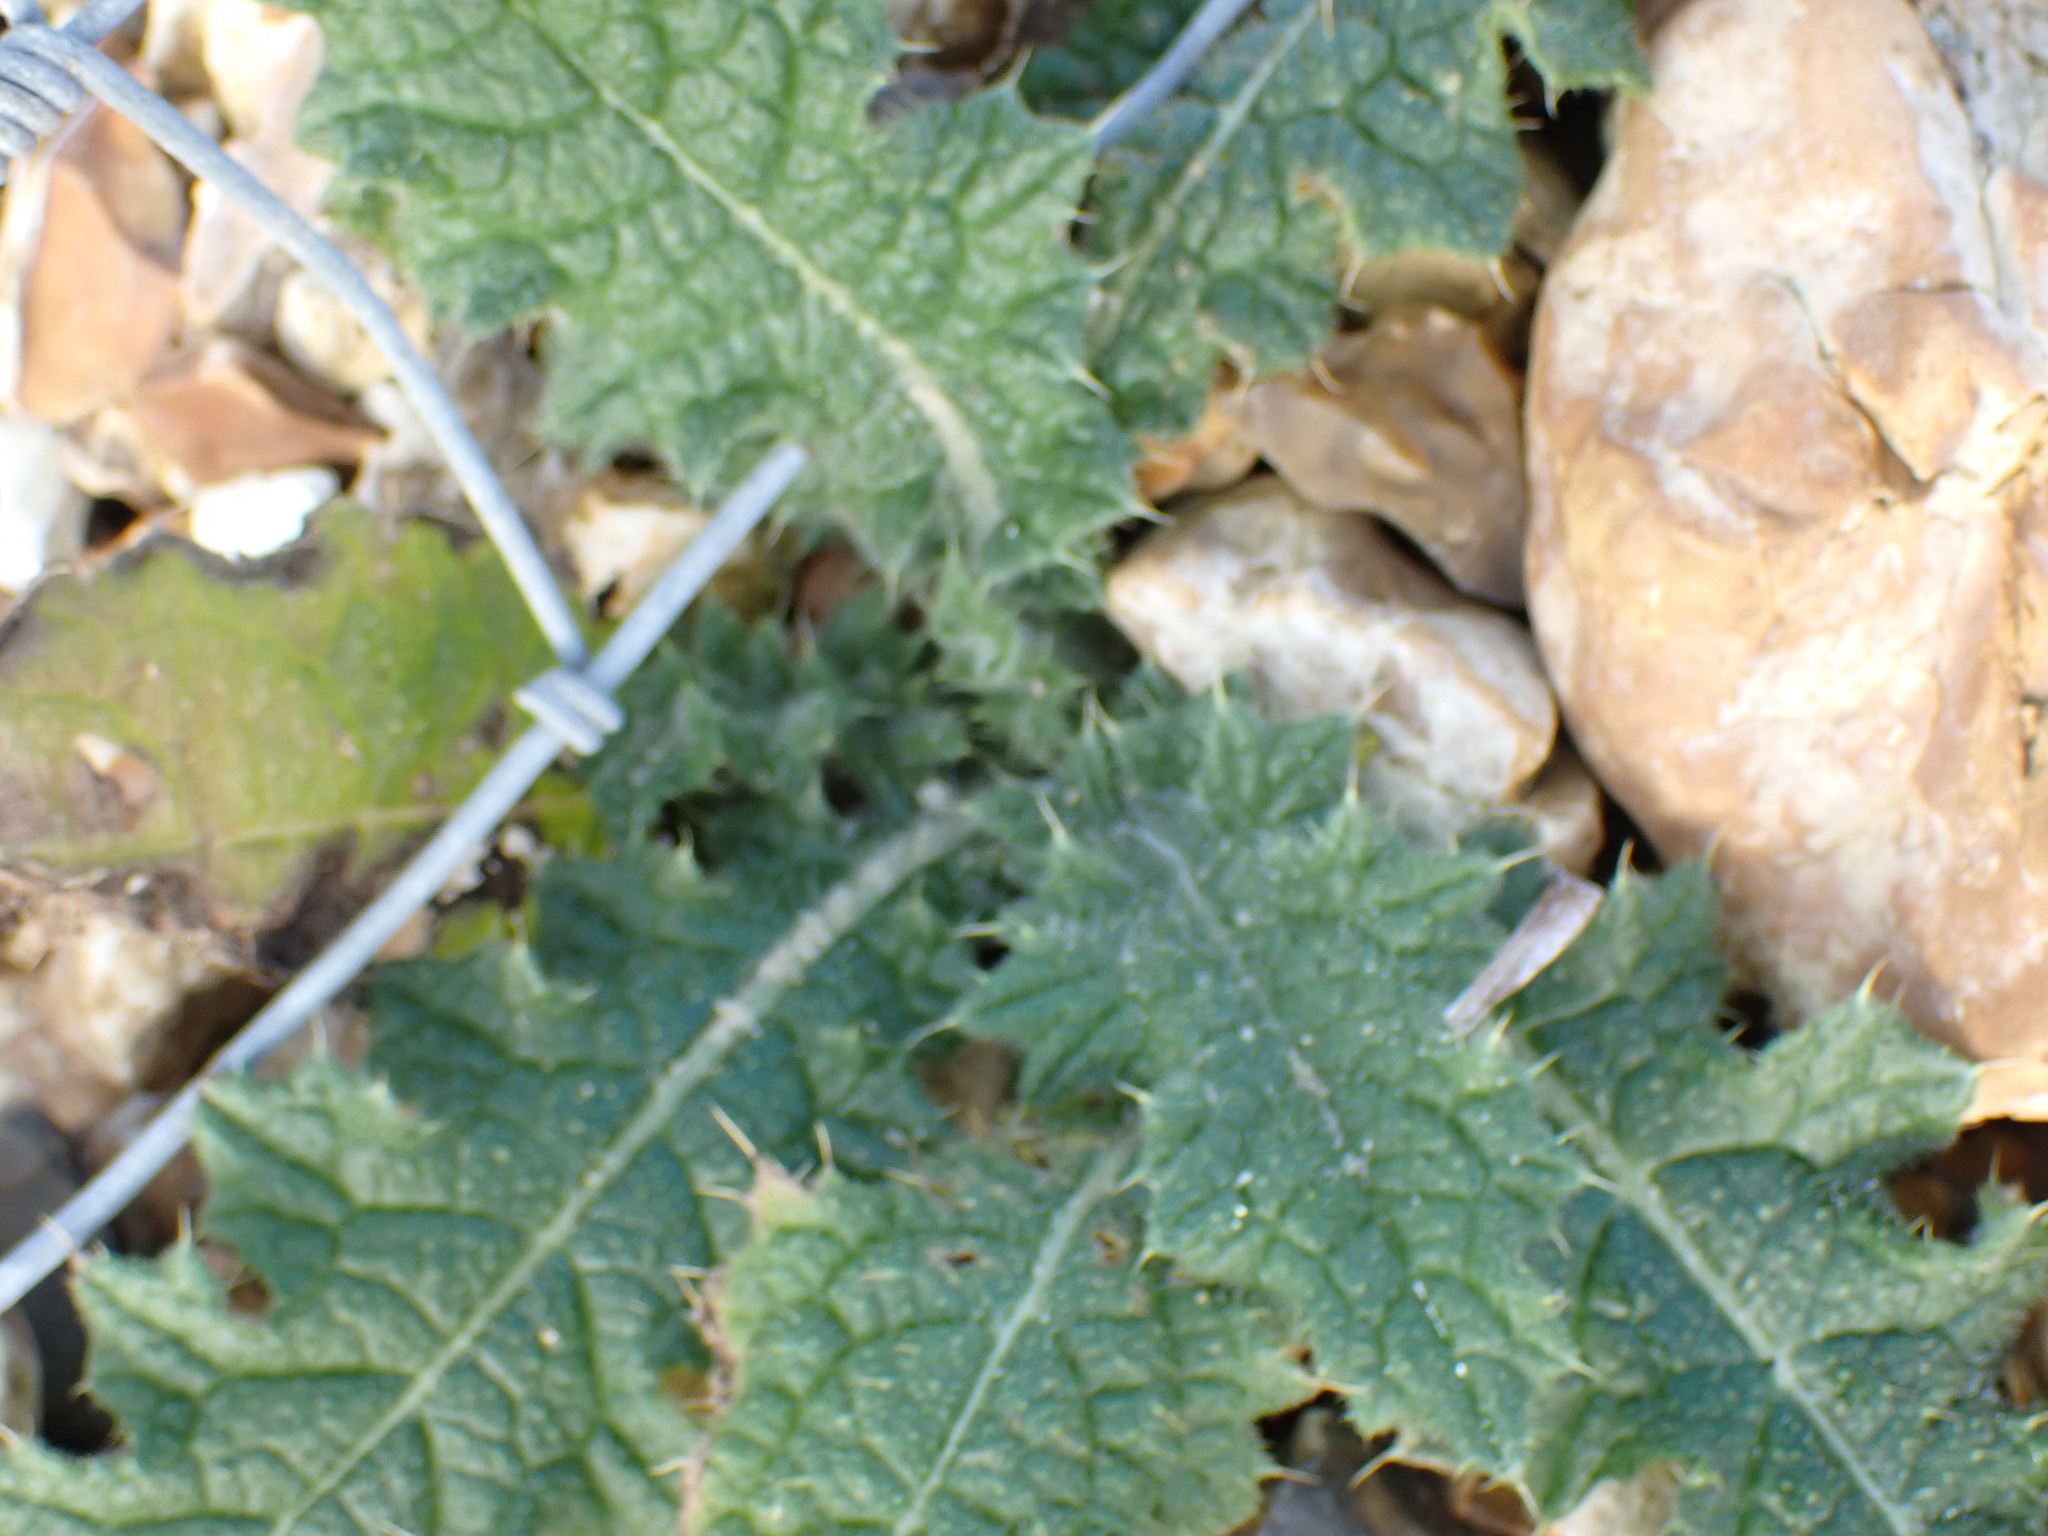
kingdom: Plantae
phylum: Tracheophyta
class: Magnoliopsida
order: Asterales
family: Asteraceae
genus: Cirsium
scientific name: Cirsium vulgare
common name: Bull thistle
